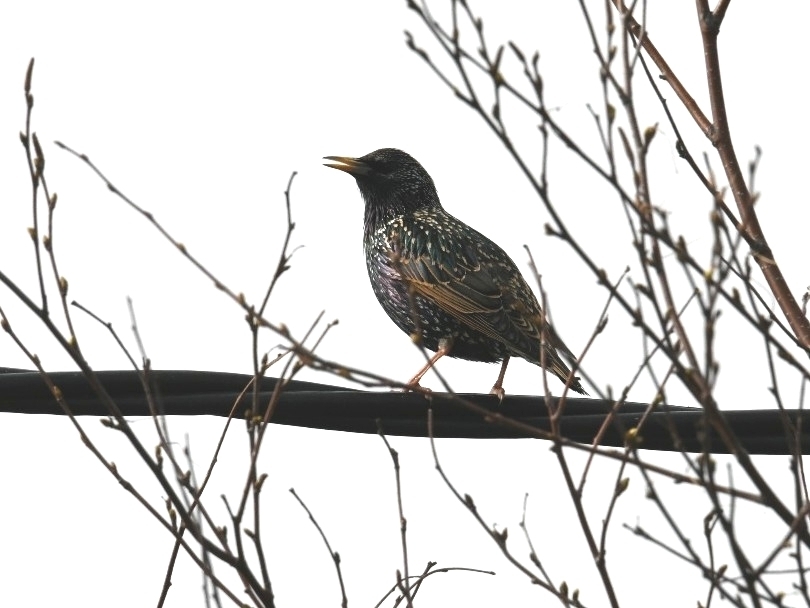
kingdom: Animalia
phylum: Chordata
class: Aves
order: Passeriformes
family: Sturnidae
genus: Sturnus
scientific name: Sturnus vulgaris
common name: Common starling
